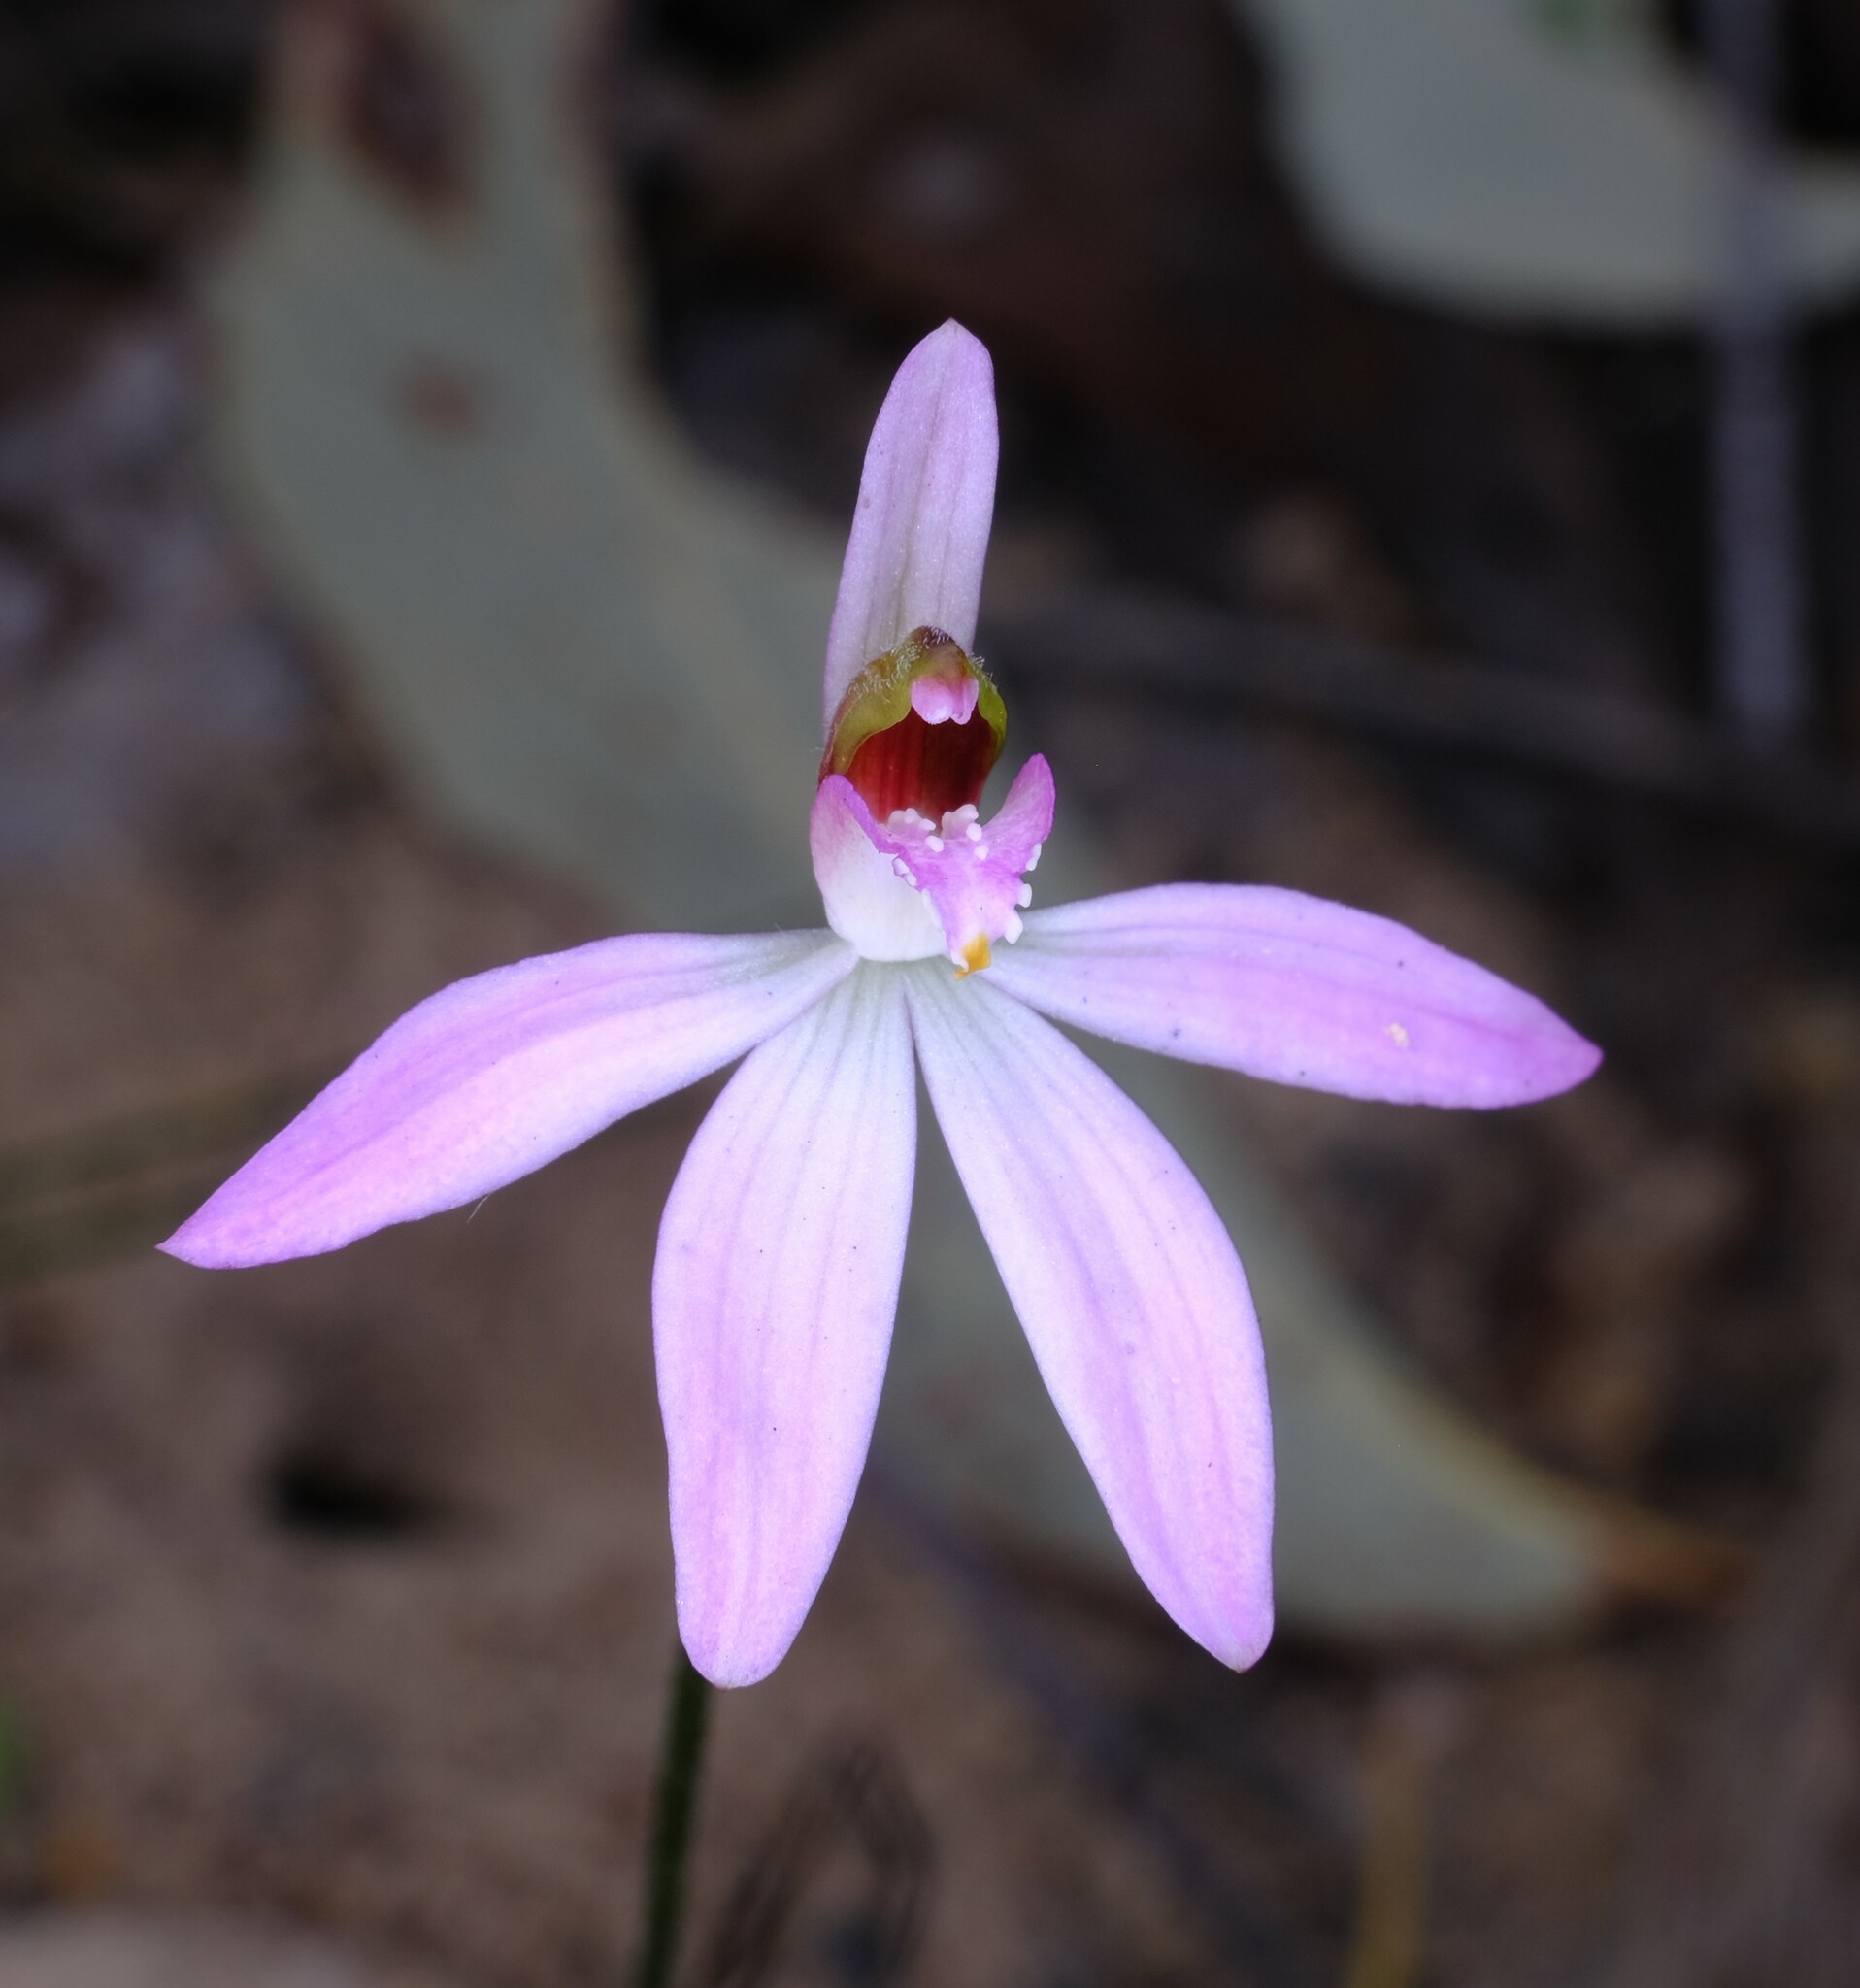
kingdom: Plantae
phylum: Tracheophyta
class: Liliopsida
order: Asparagales
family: Orchidaceae
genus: Caladenia
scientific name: Caladenia catenata
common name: White caladenia
